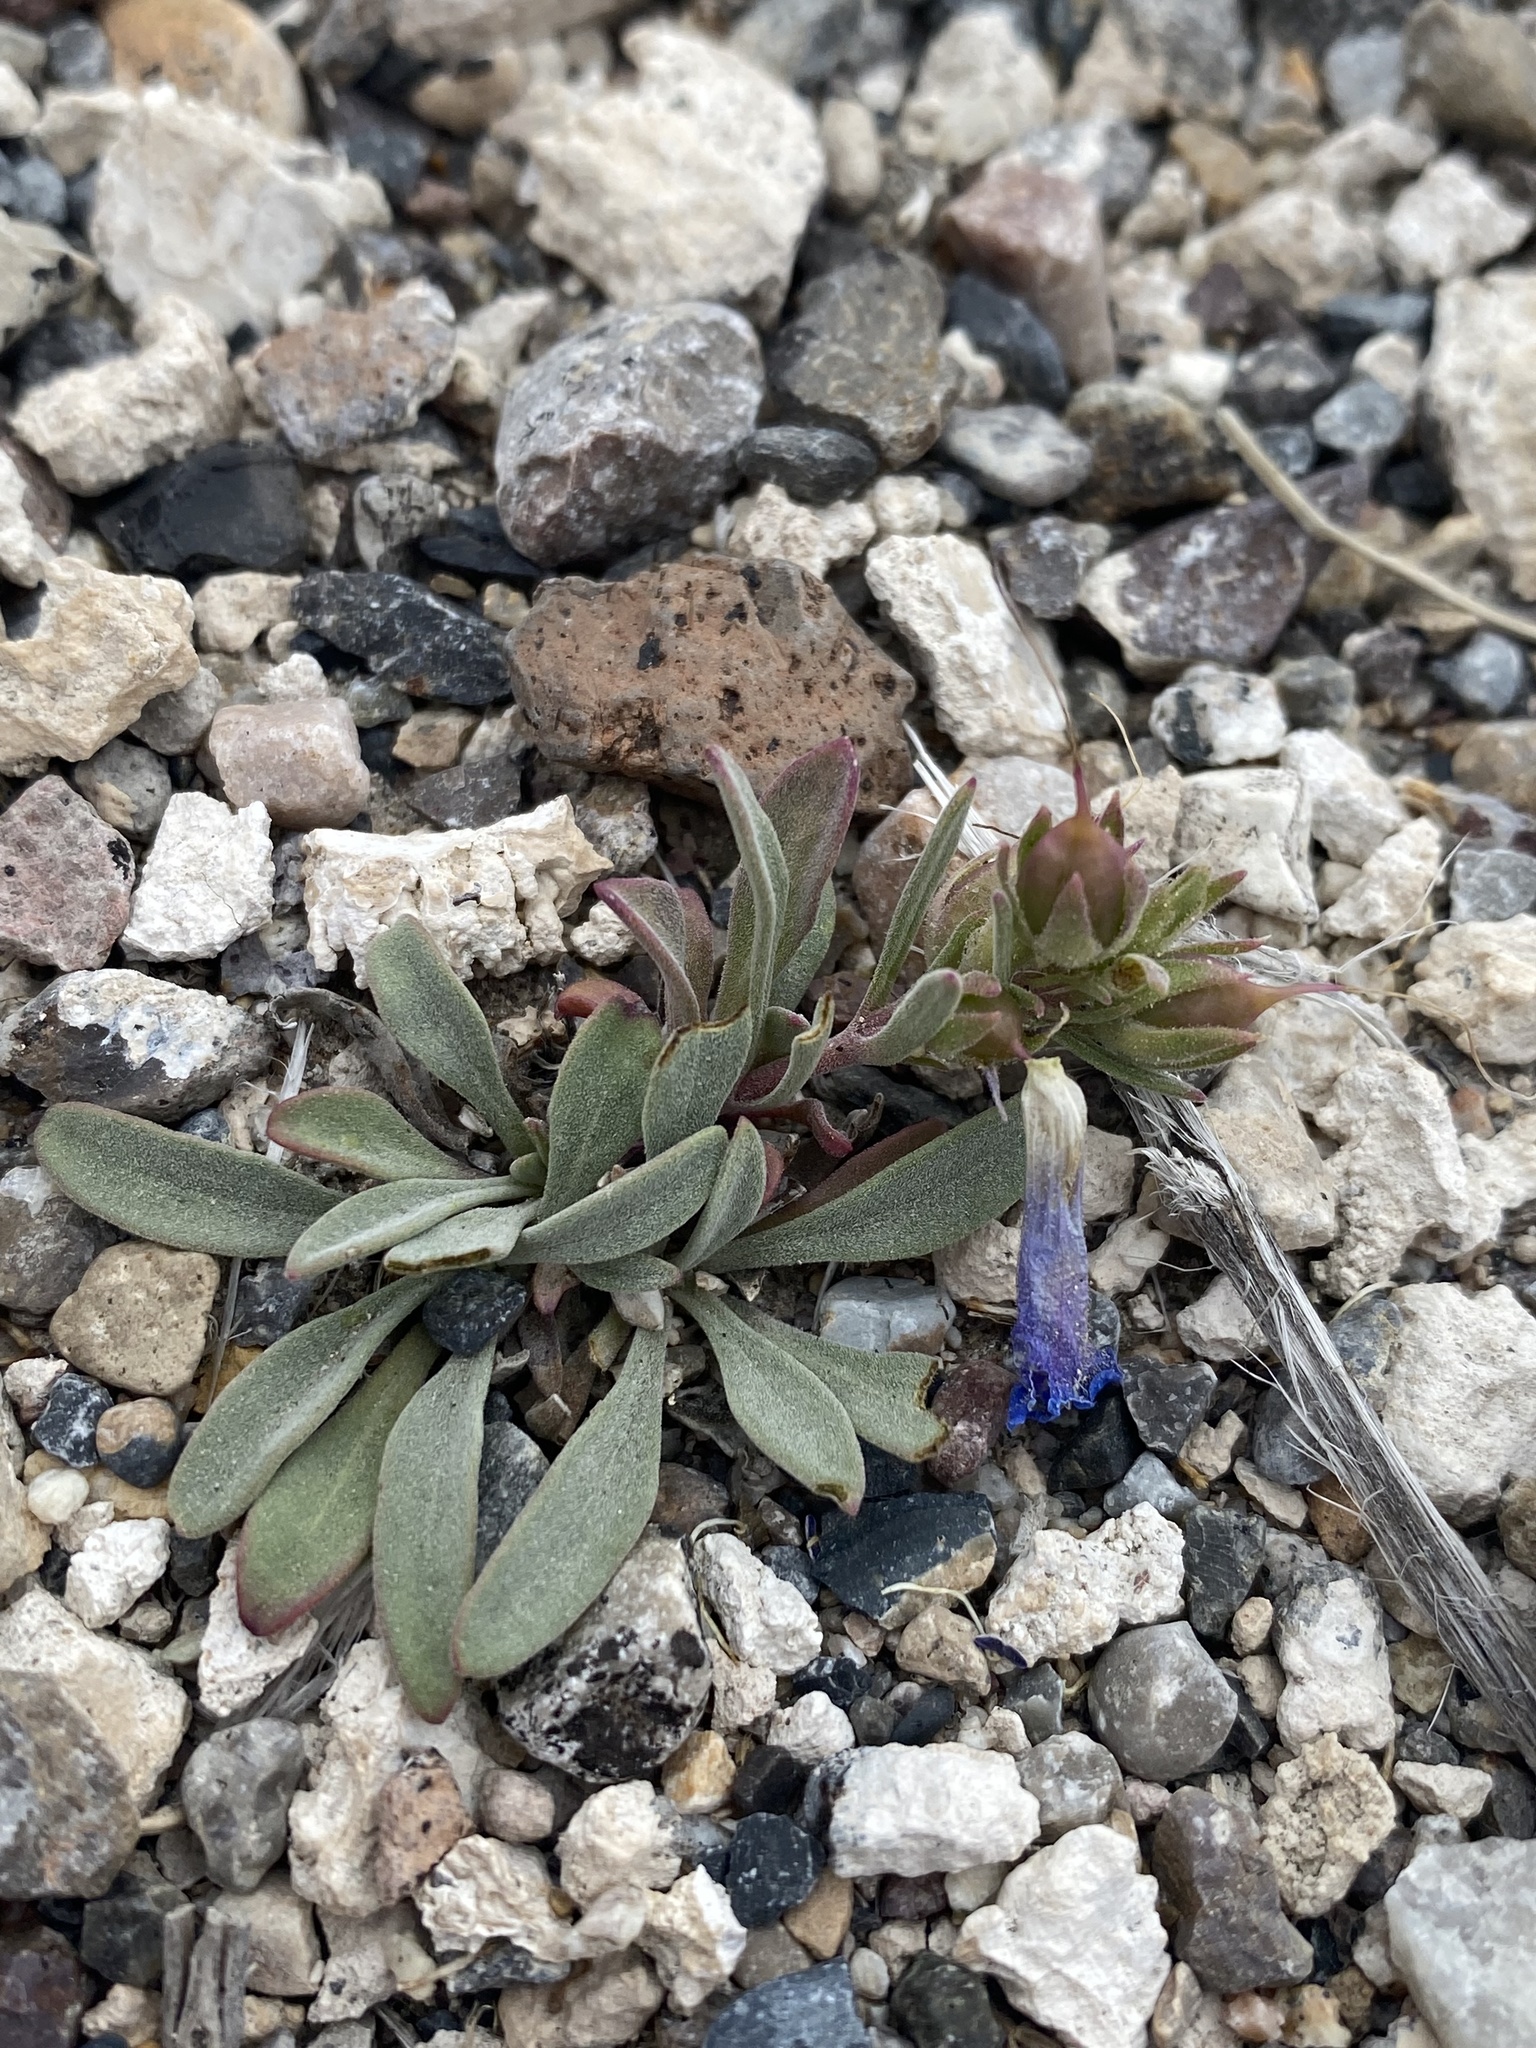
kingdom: Plantae
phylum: Tracheophyta
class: Magnoliopsida
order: Lamiales
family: Plantaginaceae
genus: Penstemon
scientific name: Penstemon dolius
